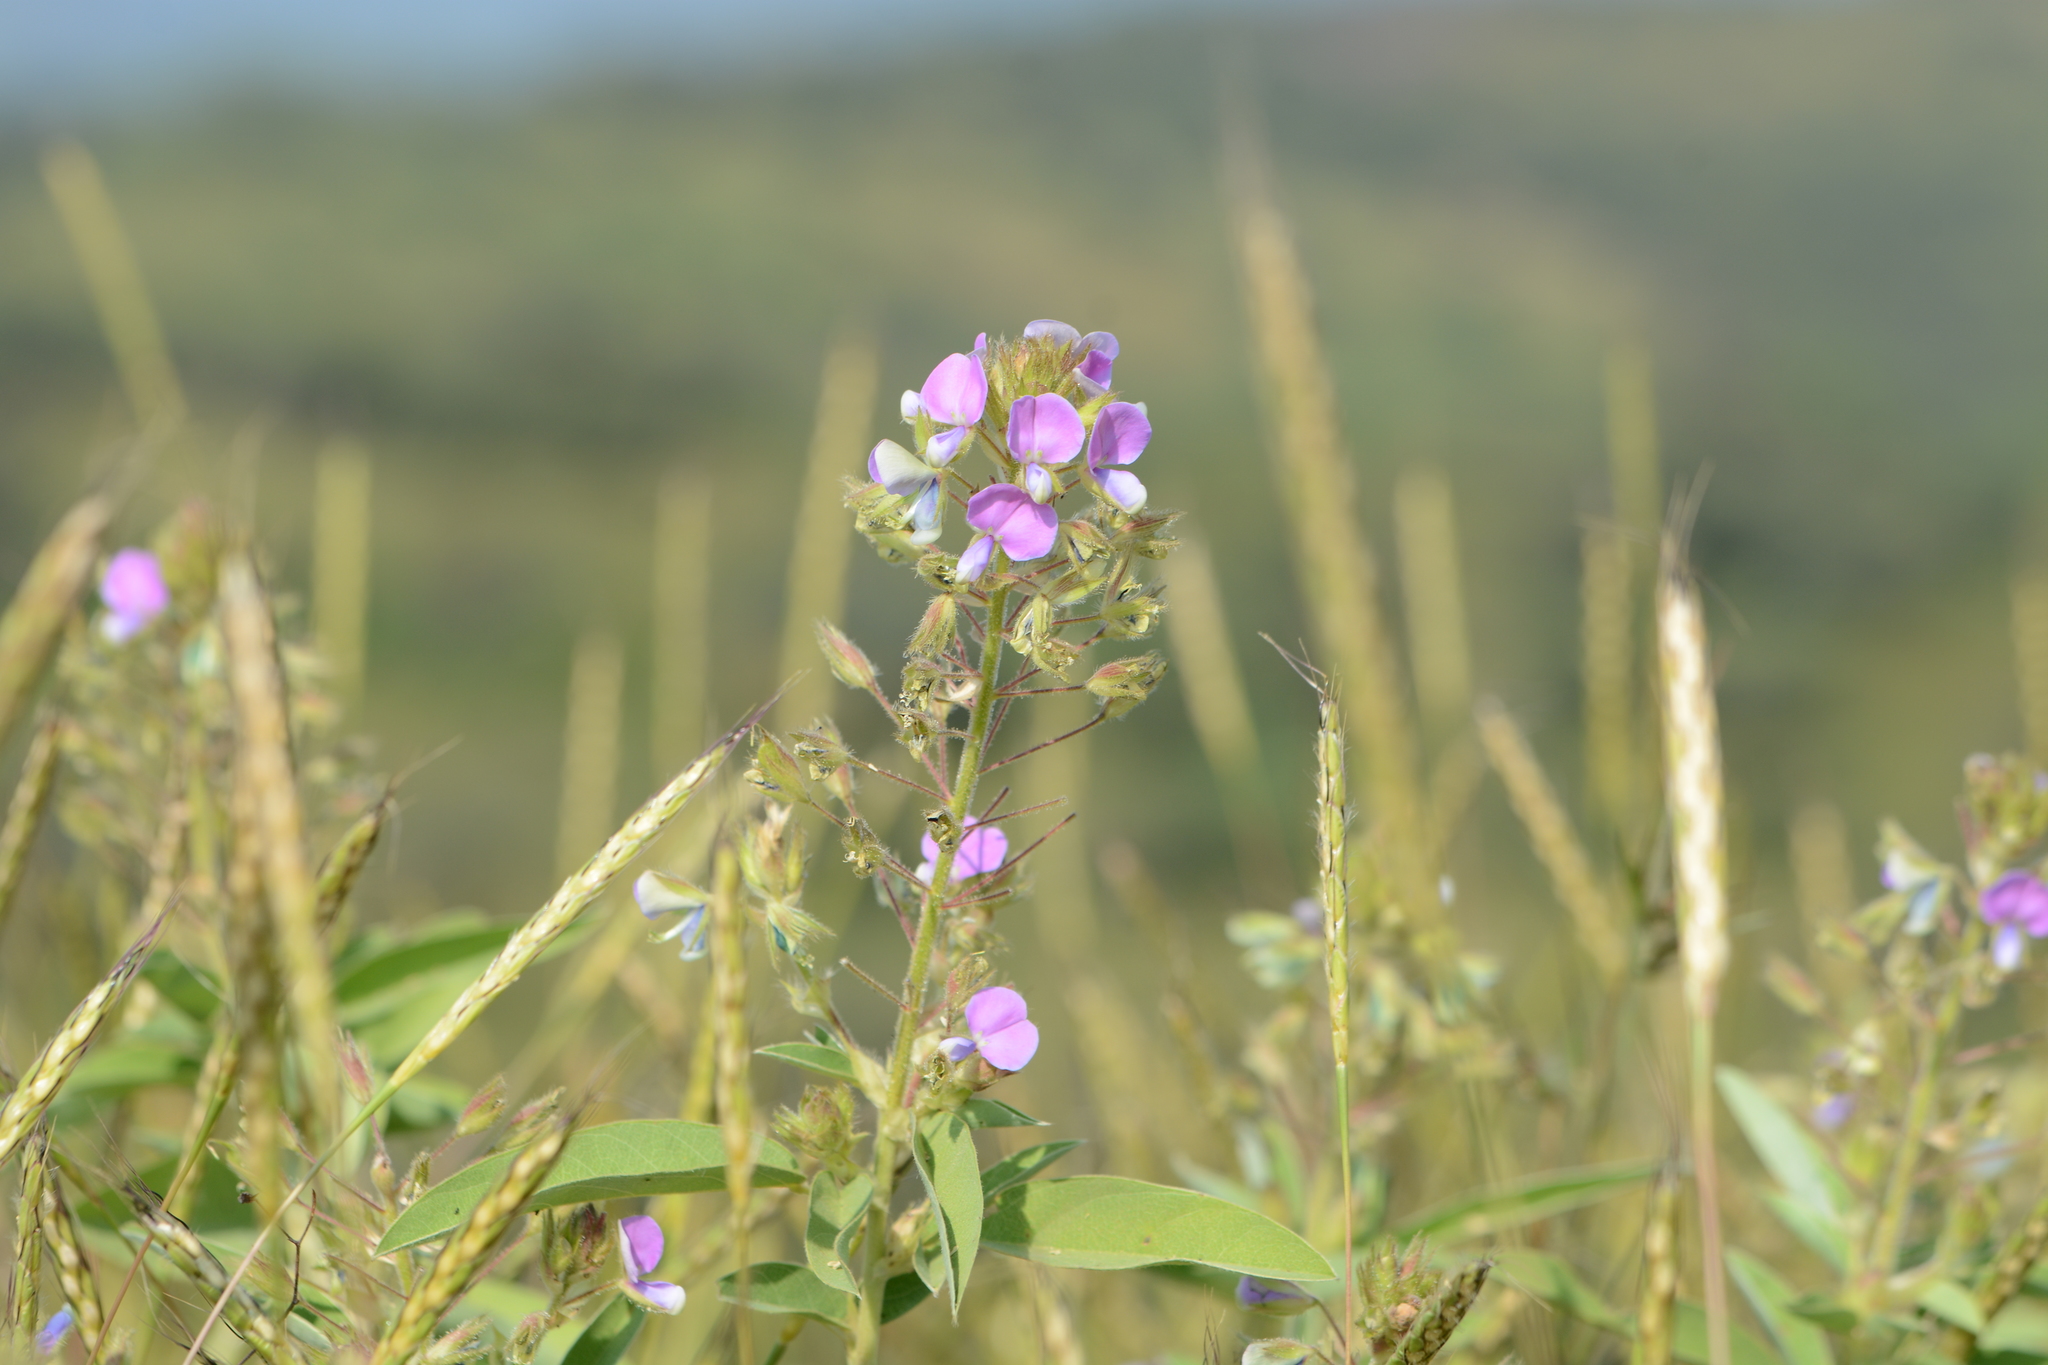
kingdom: Plantae
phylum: Tracheophyta
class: Magnoliopsida
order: Fabales
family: Fabaceae
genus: Alysicarpus
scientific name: Alysicarpus belgaumensis
